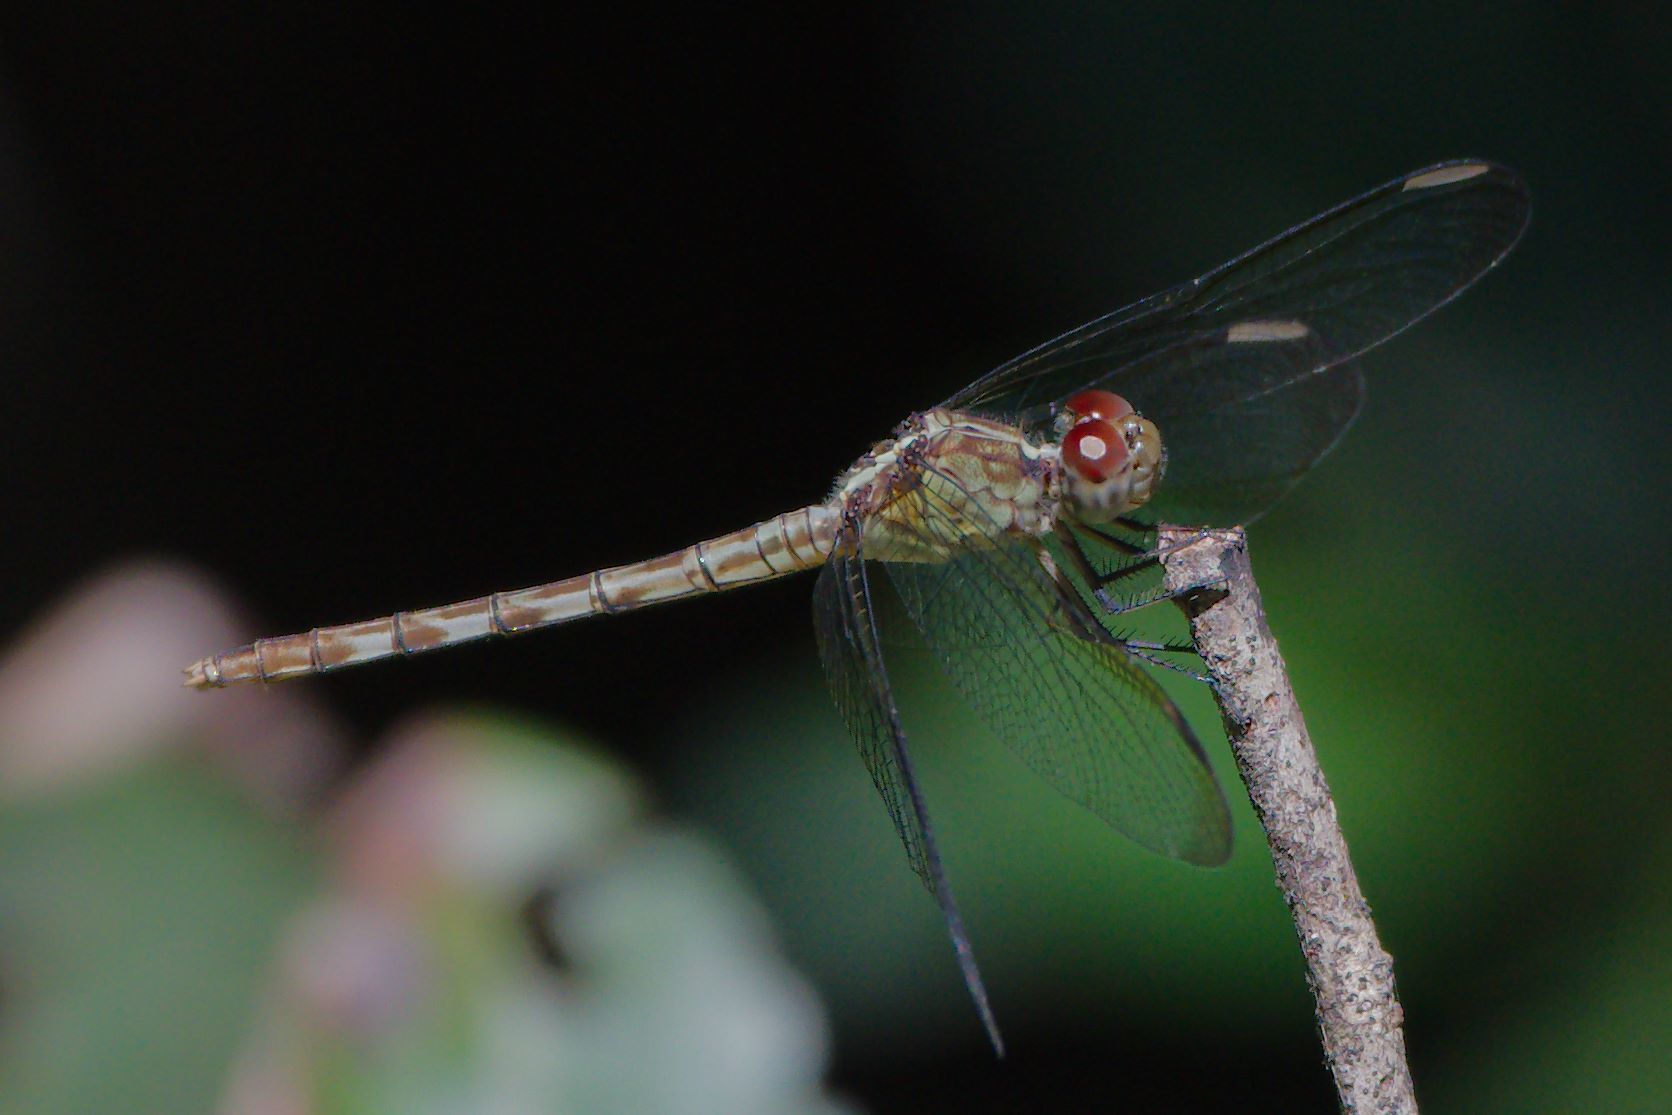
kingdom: Animalia
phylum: Arthropoda
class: Insecta
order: Odonata
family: Libellulidae
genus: Erythrodiplax
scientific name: Erythrodiplax umbrata
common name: Band-winged dragonlet
